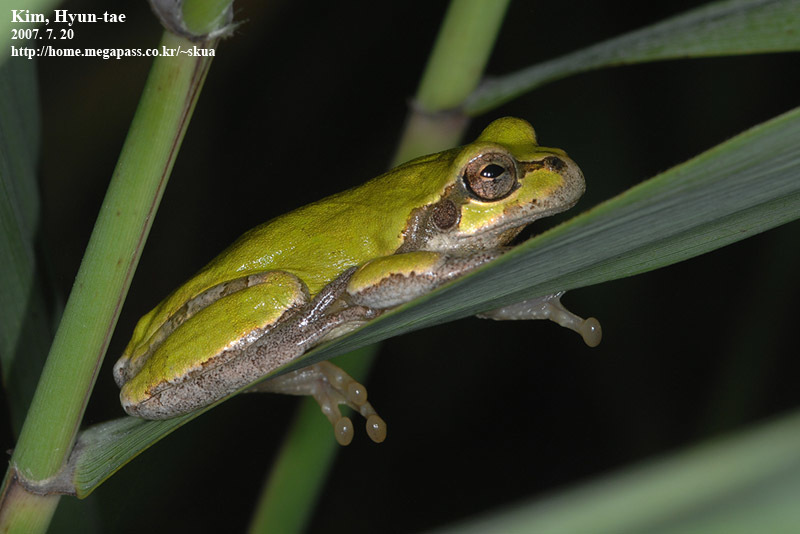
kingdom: Animalia
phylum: Chordata
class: Amphibia
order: Anura
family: Hylidae
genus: Dryophytes
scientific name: Dryophytes japonicus
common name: Japanese treefrog
